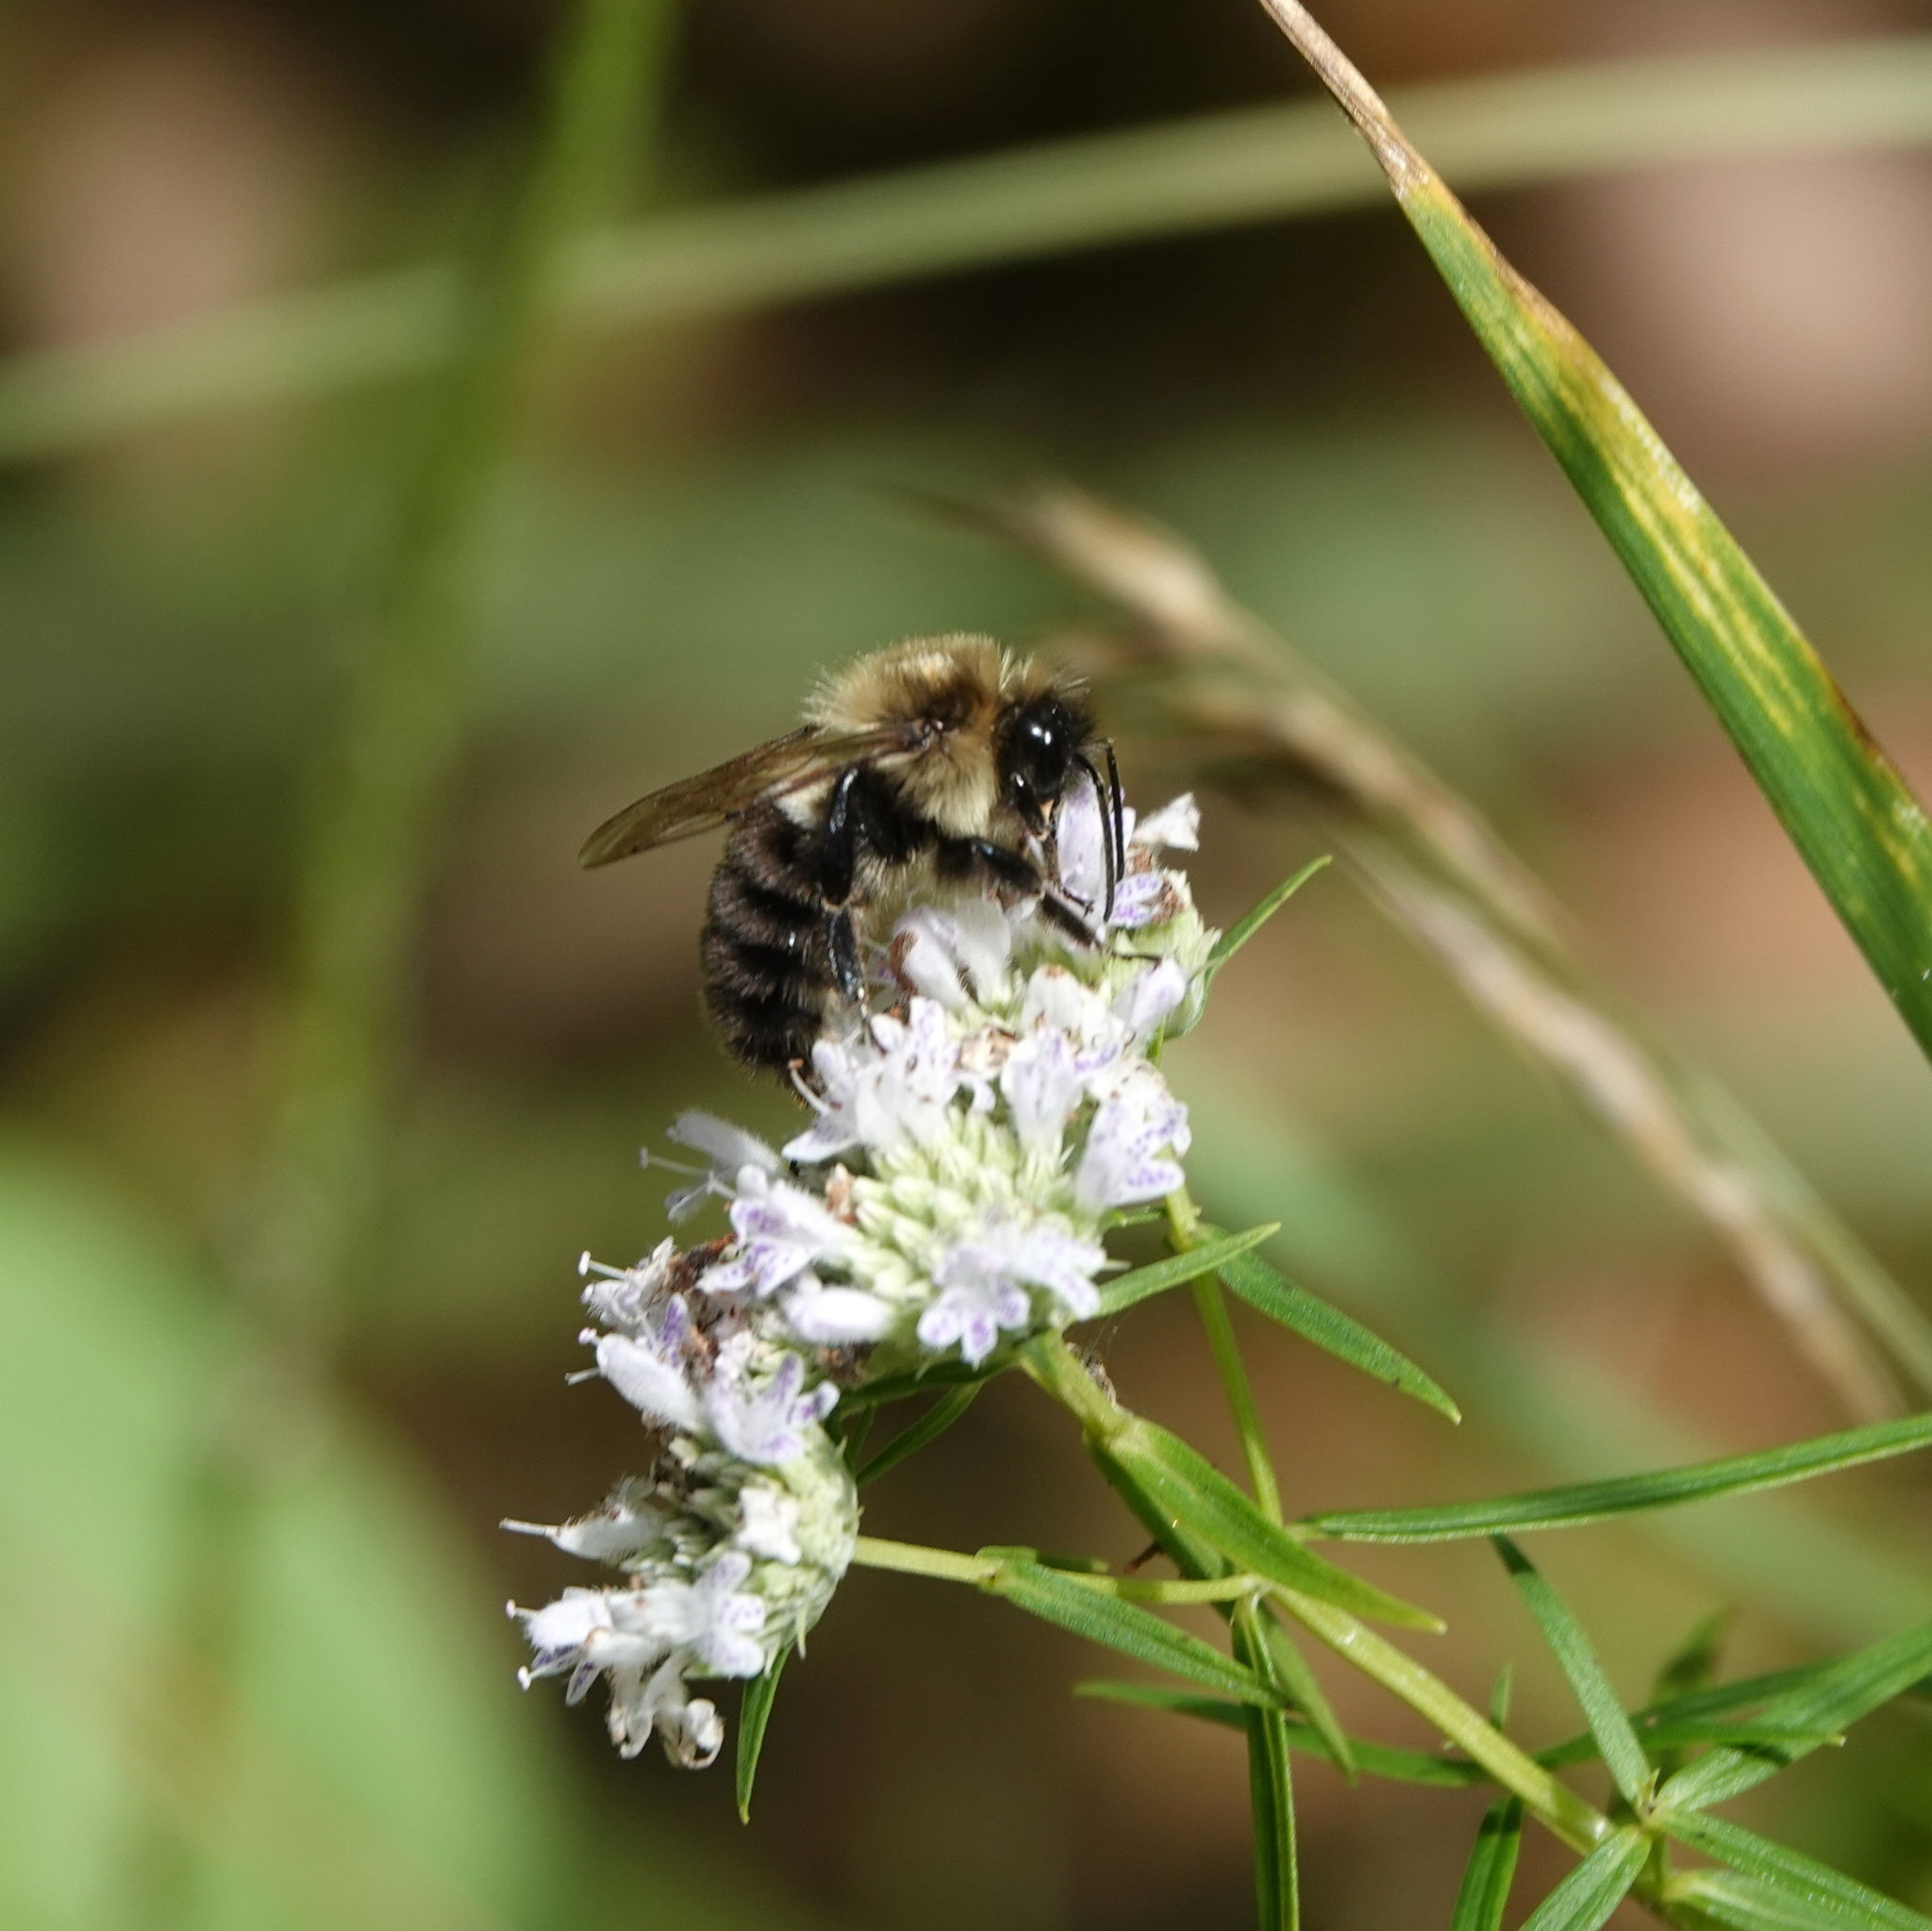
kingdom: Animalia
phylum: Arthropoda
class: Insecta
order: Hymenoptera
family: Apidae
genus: Bombus
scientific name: Bombus impatiens
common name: Common eastern bumble bee
